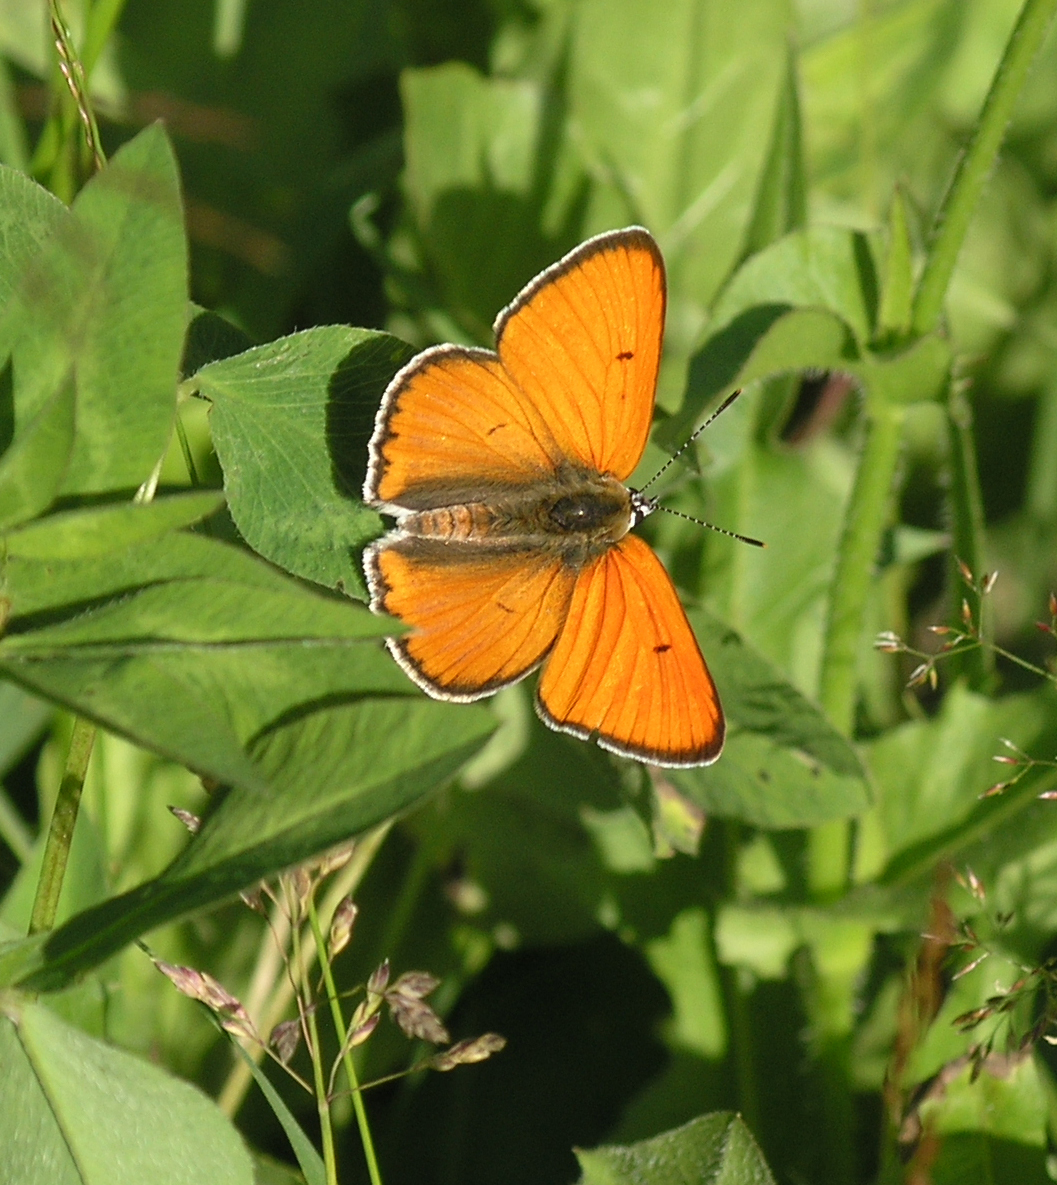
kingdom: Animalia
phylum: Arthropoda
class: Insecta
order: Lepidoptera
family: Lycaenidae
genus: Lycaena
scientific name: Lycaena dispar
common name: Large copper
